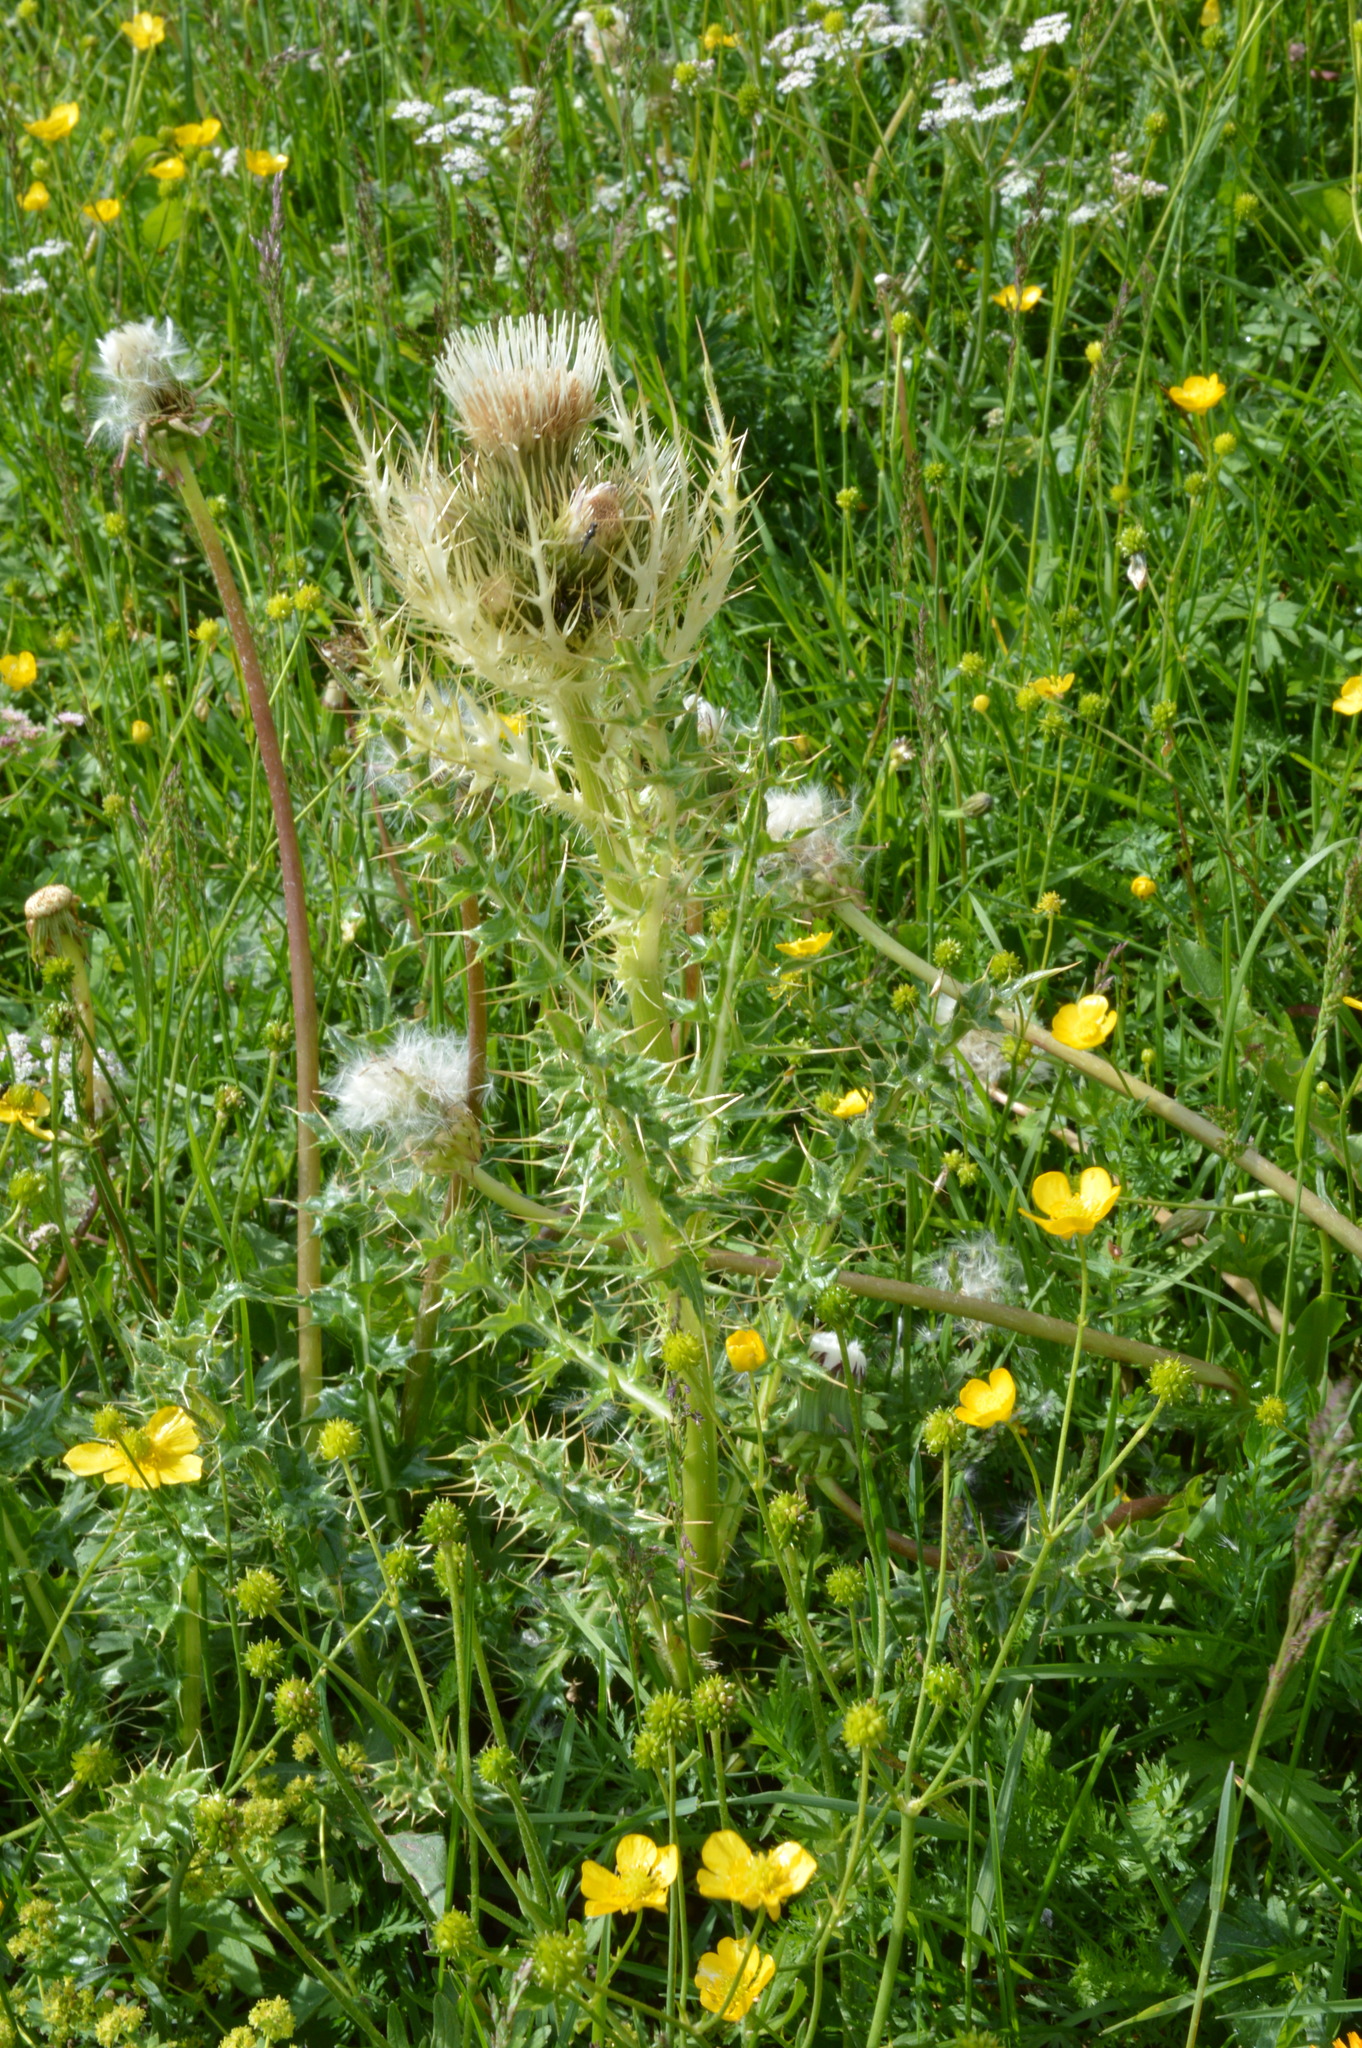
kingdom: Plantae
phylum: Tracheophyta
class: Magnoliopsida
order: Asterales
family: Asteraceae
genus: Cirsium
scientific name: Cirsium spinosissimum
